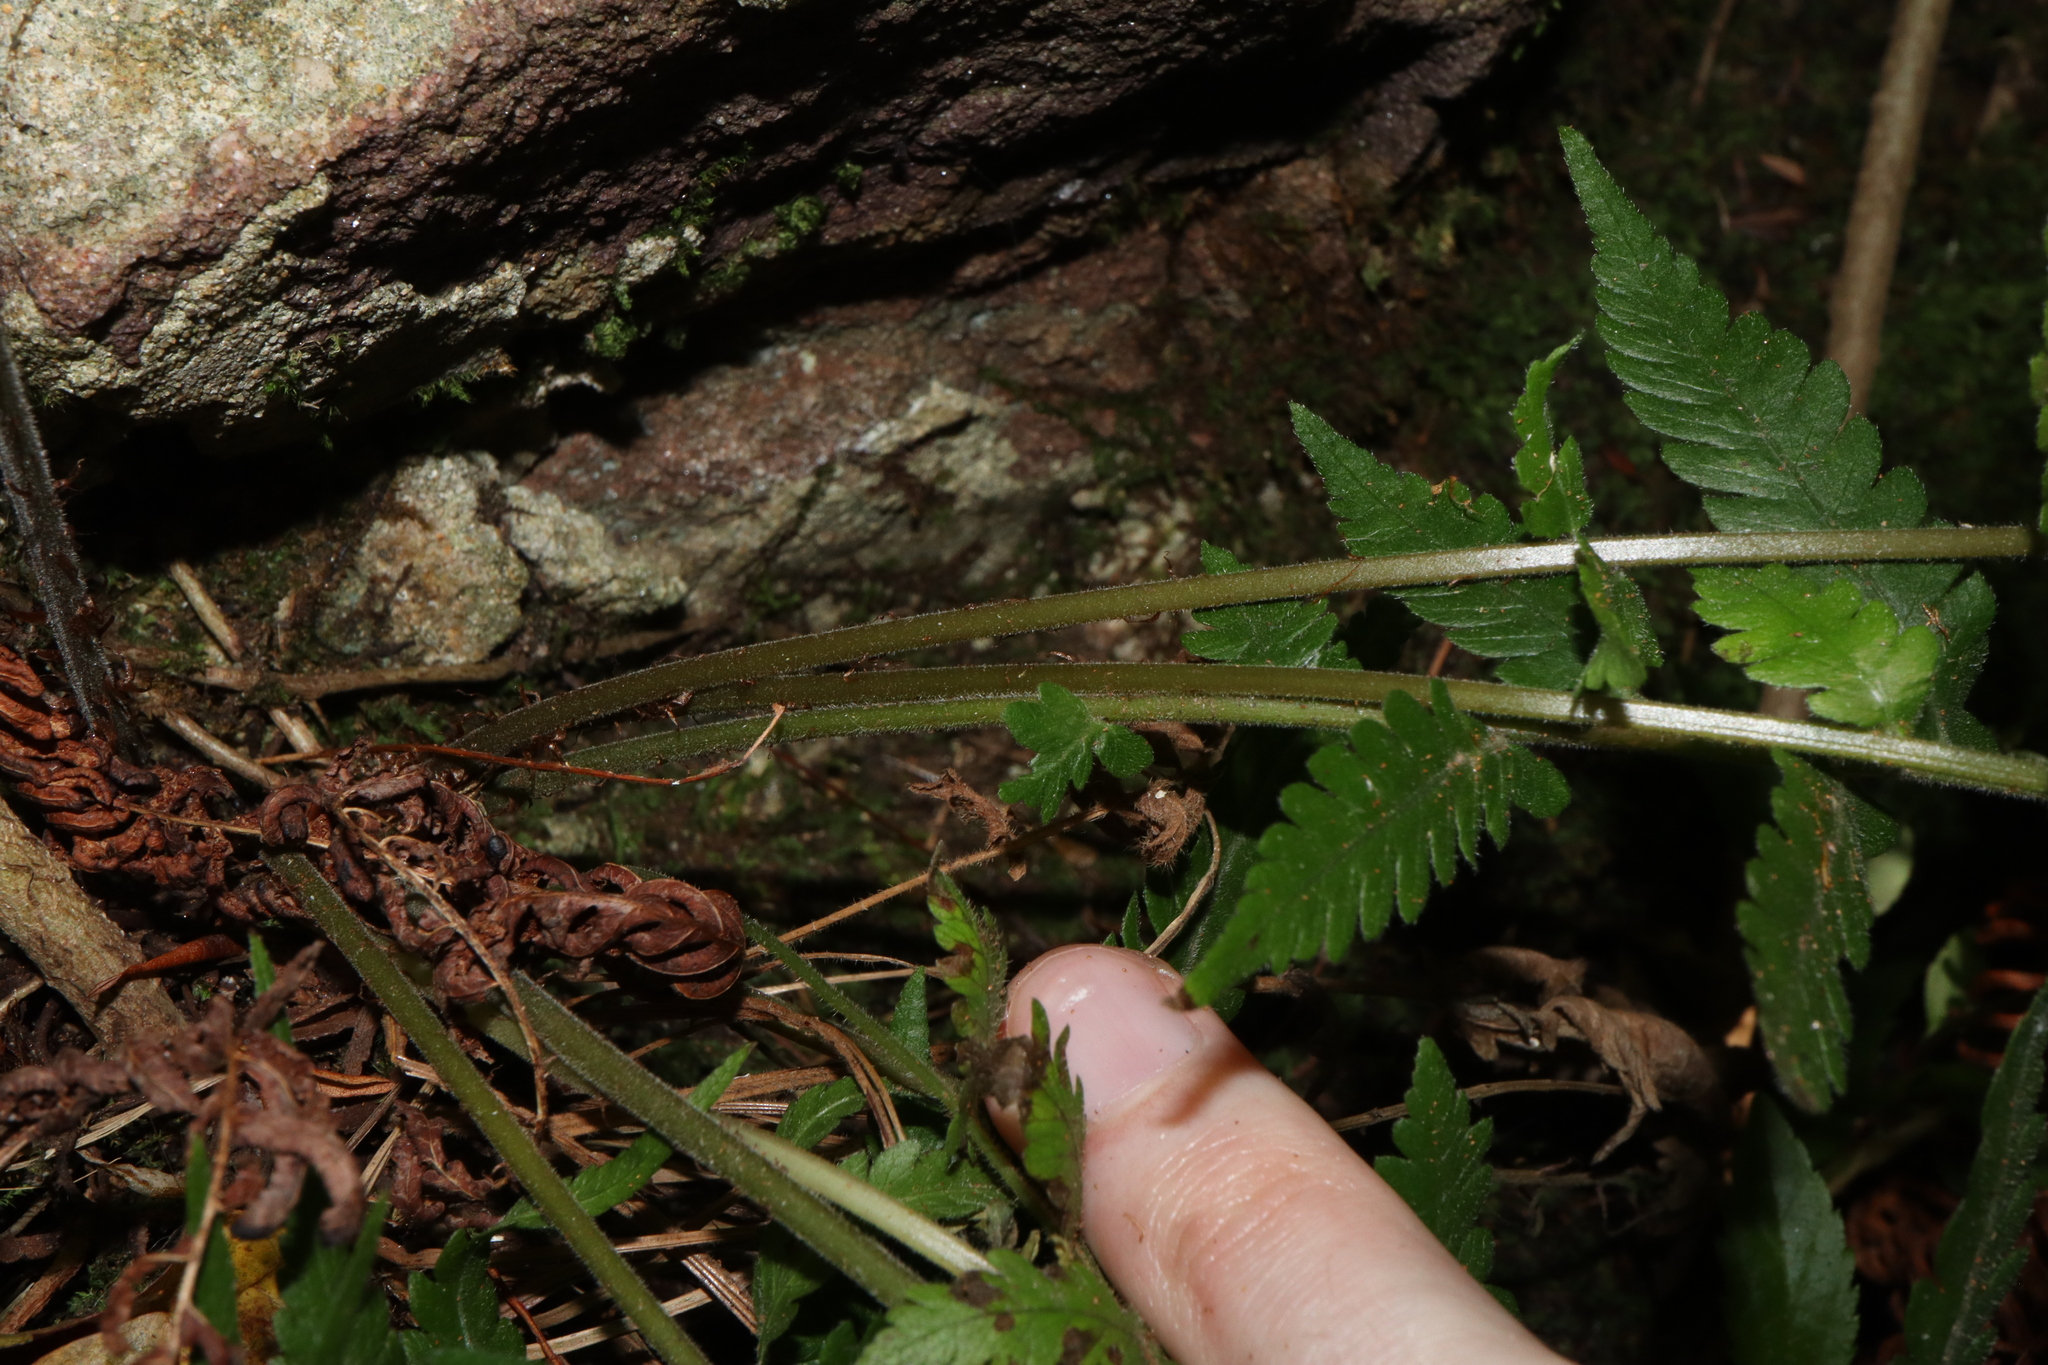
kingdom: Plantae
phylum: Tracheophyta
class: Polypodiopsida
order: Polypodiales
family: Thelypteridaceae
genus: Christella
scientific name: Christella dentata
